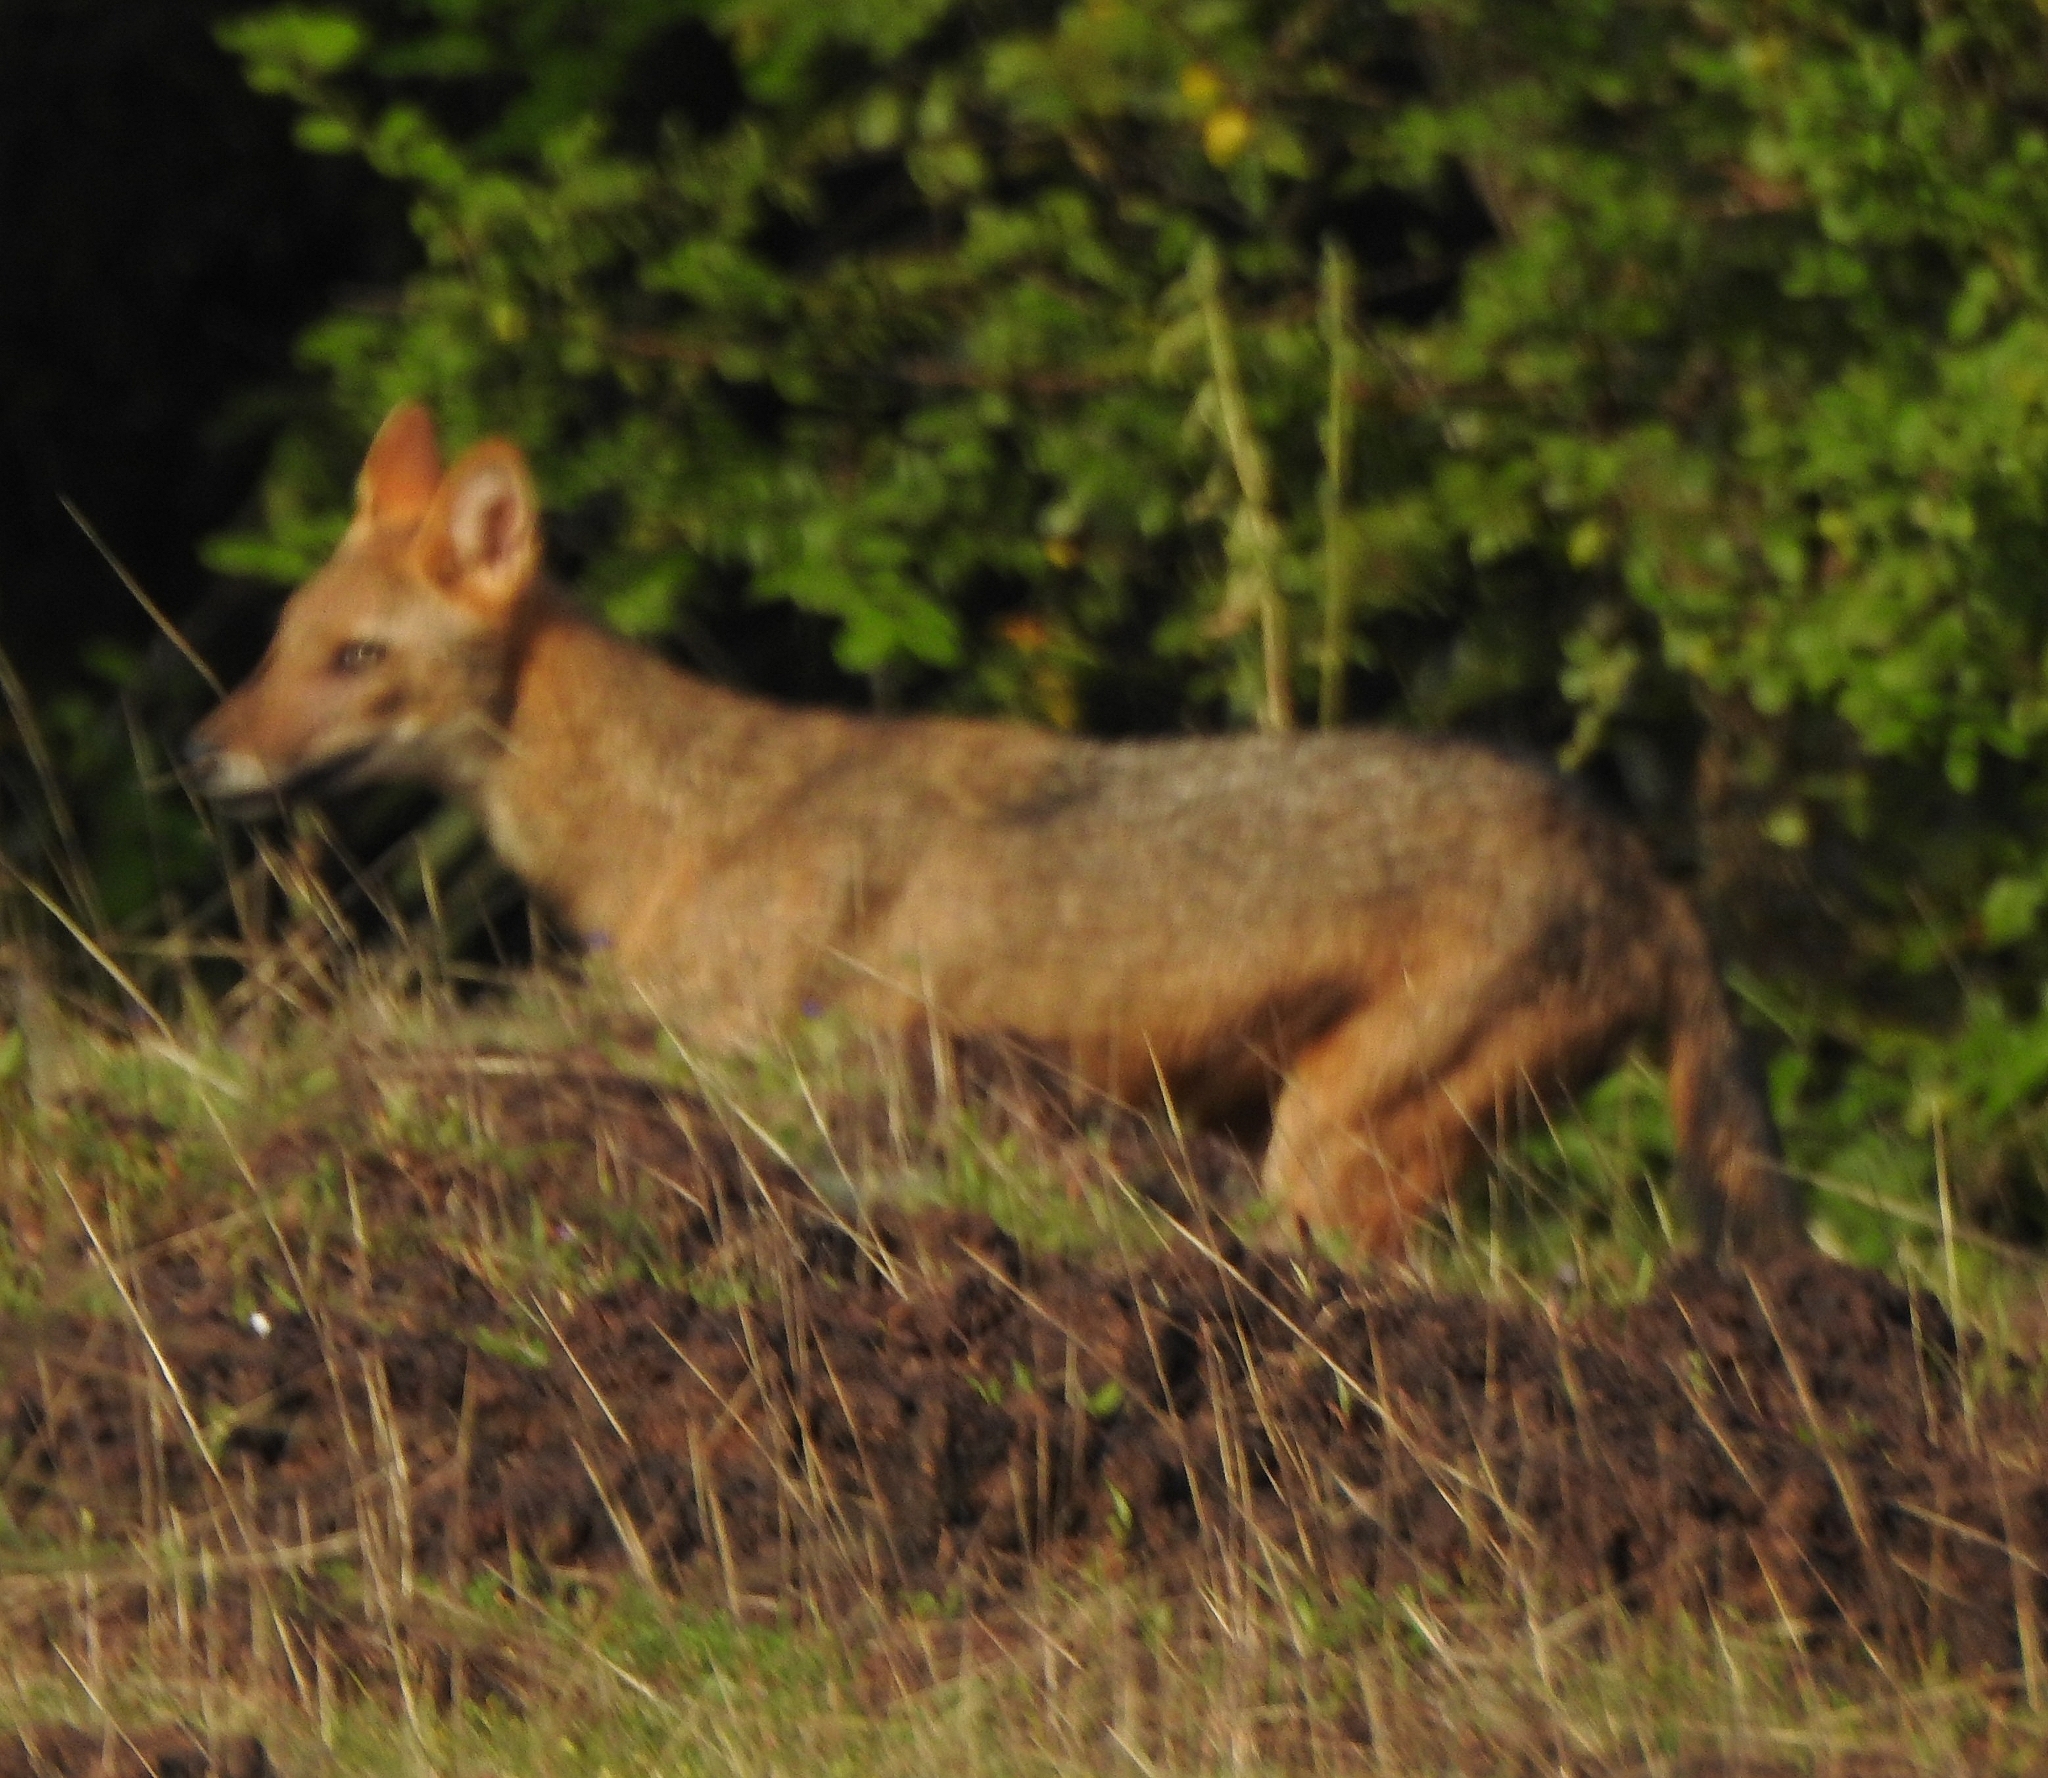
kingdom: Animalia
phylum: Chordata
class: Mammalia
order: Carnivora
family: Canidae
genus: Canis
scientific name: Canis aureus
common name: Golden jackal
